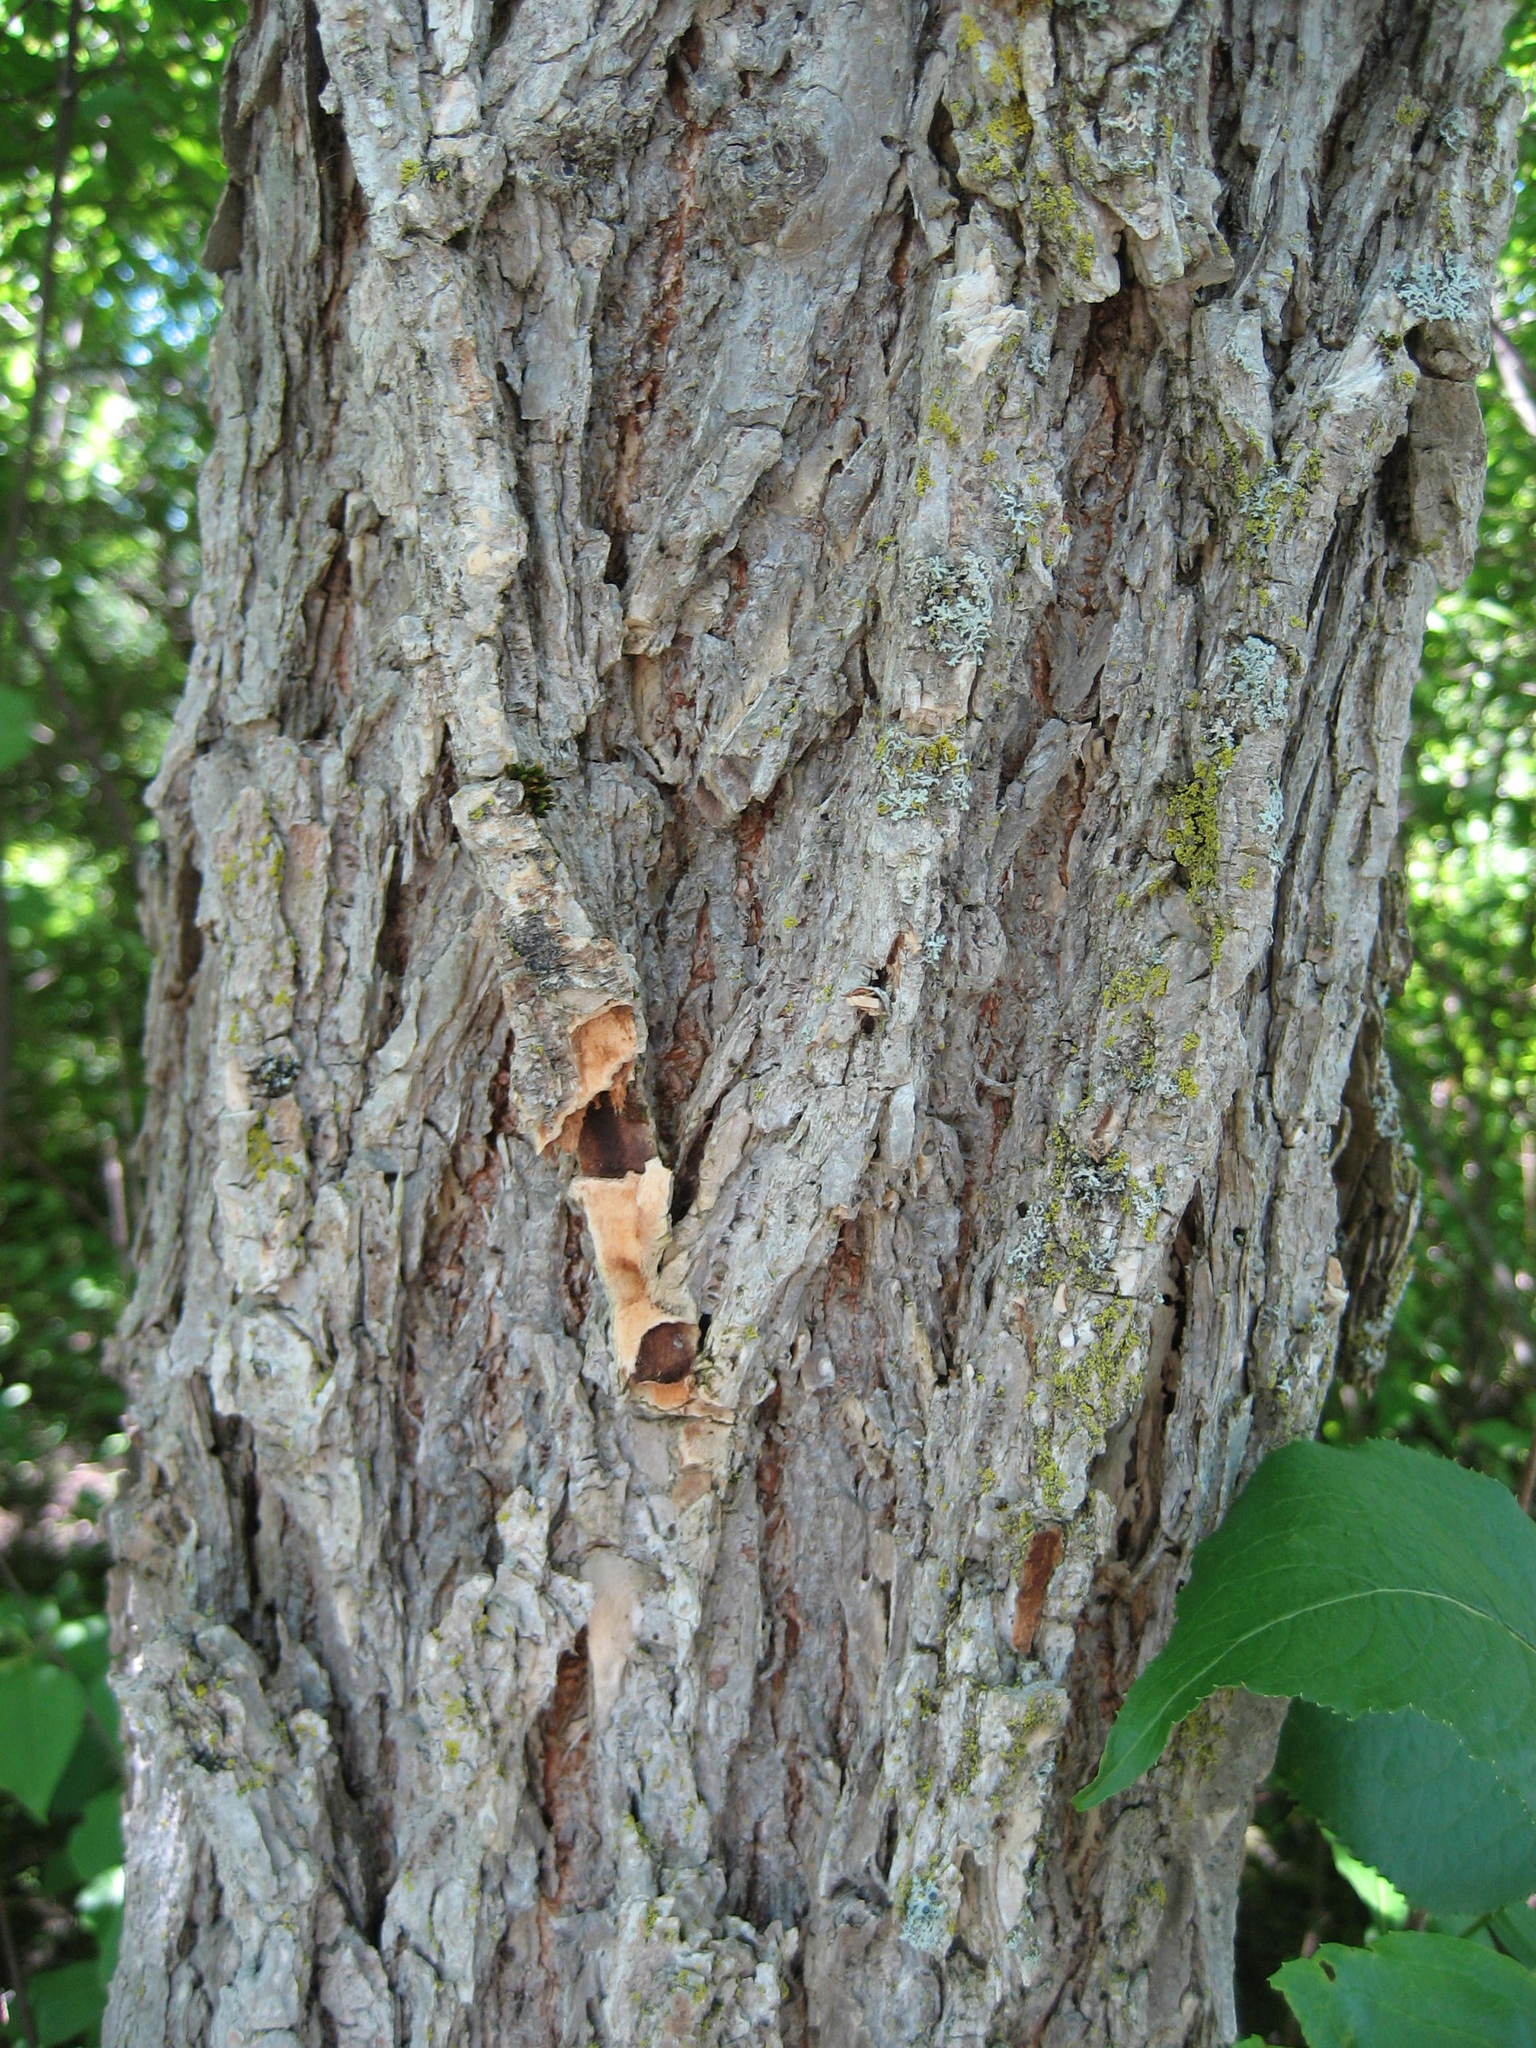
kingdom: Plantae
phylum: Tracheophyta
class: Magnoliopsida
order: Rosales
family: Ulmaceae
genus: Ulmus
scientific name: Ulmus americana
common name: American elm
